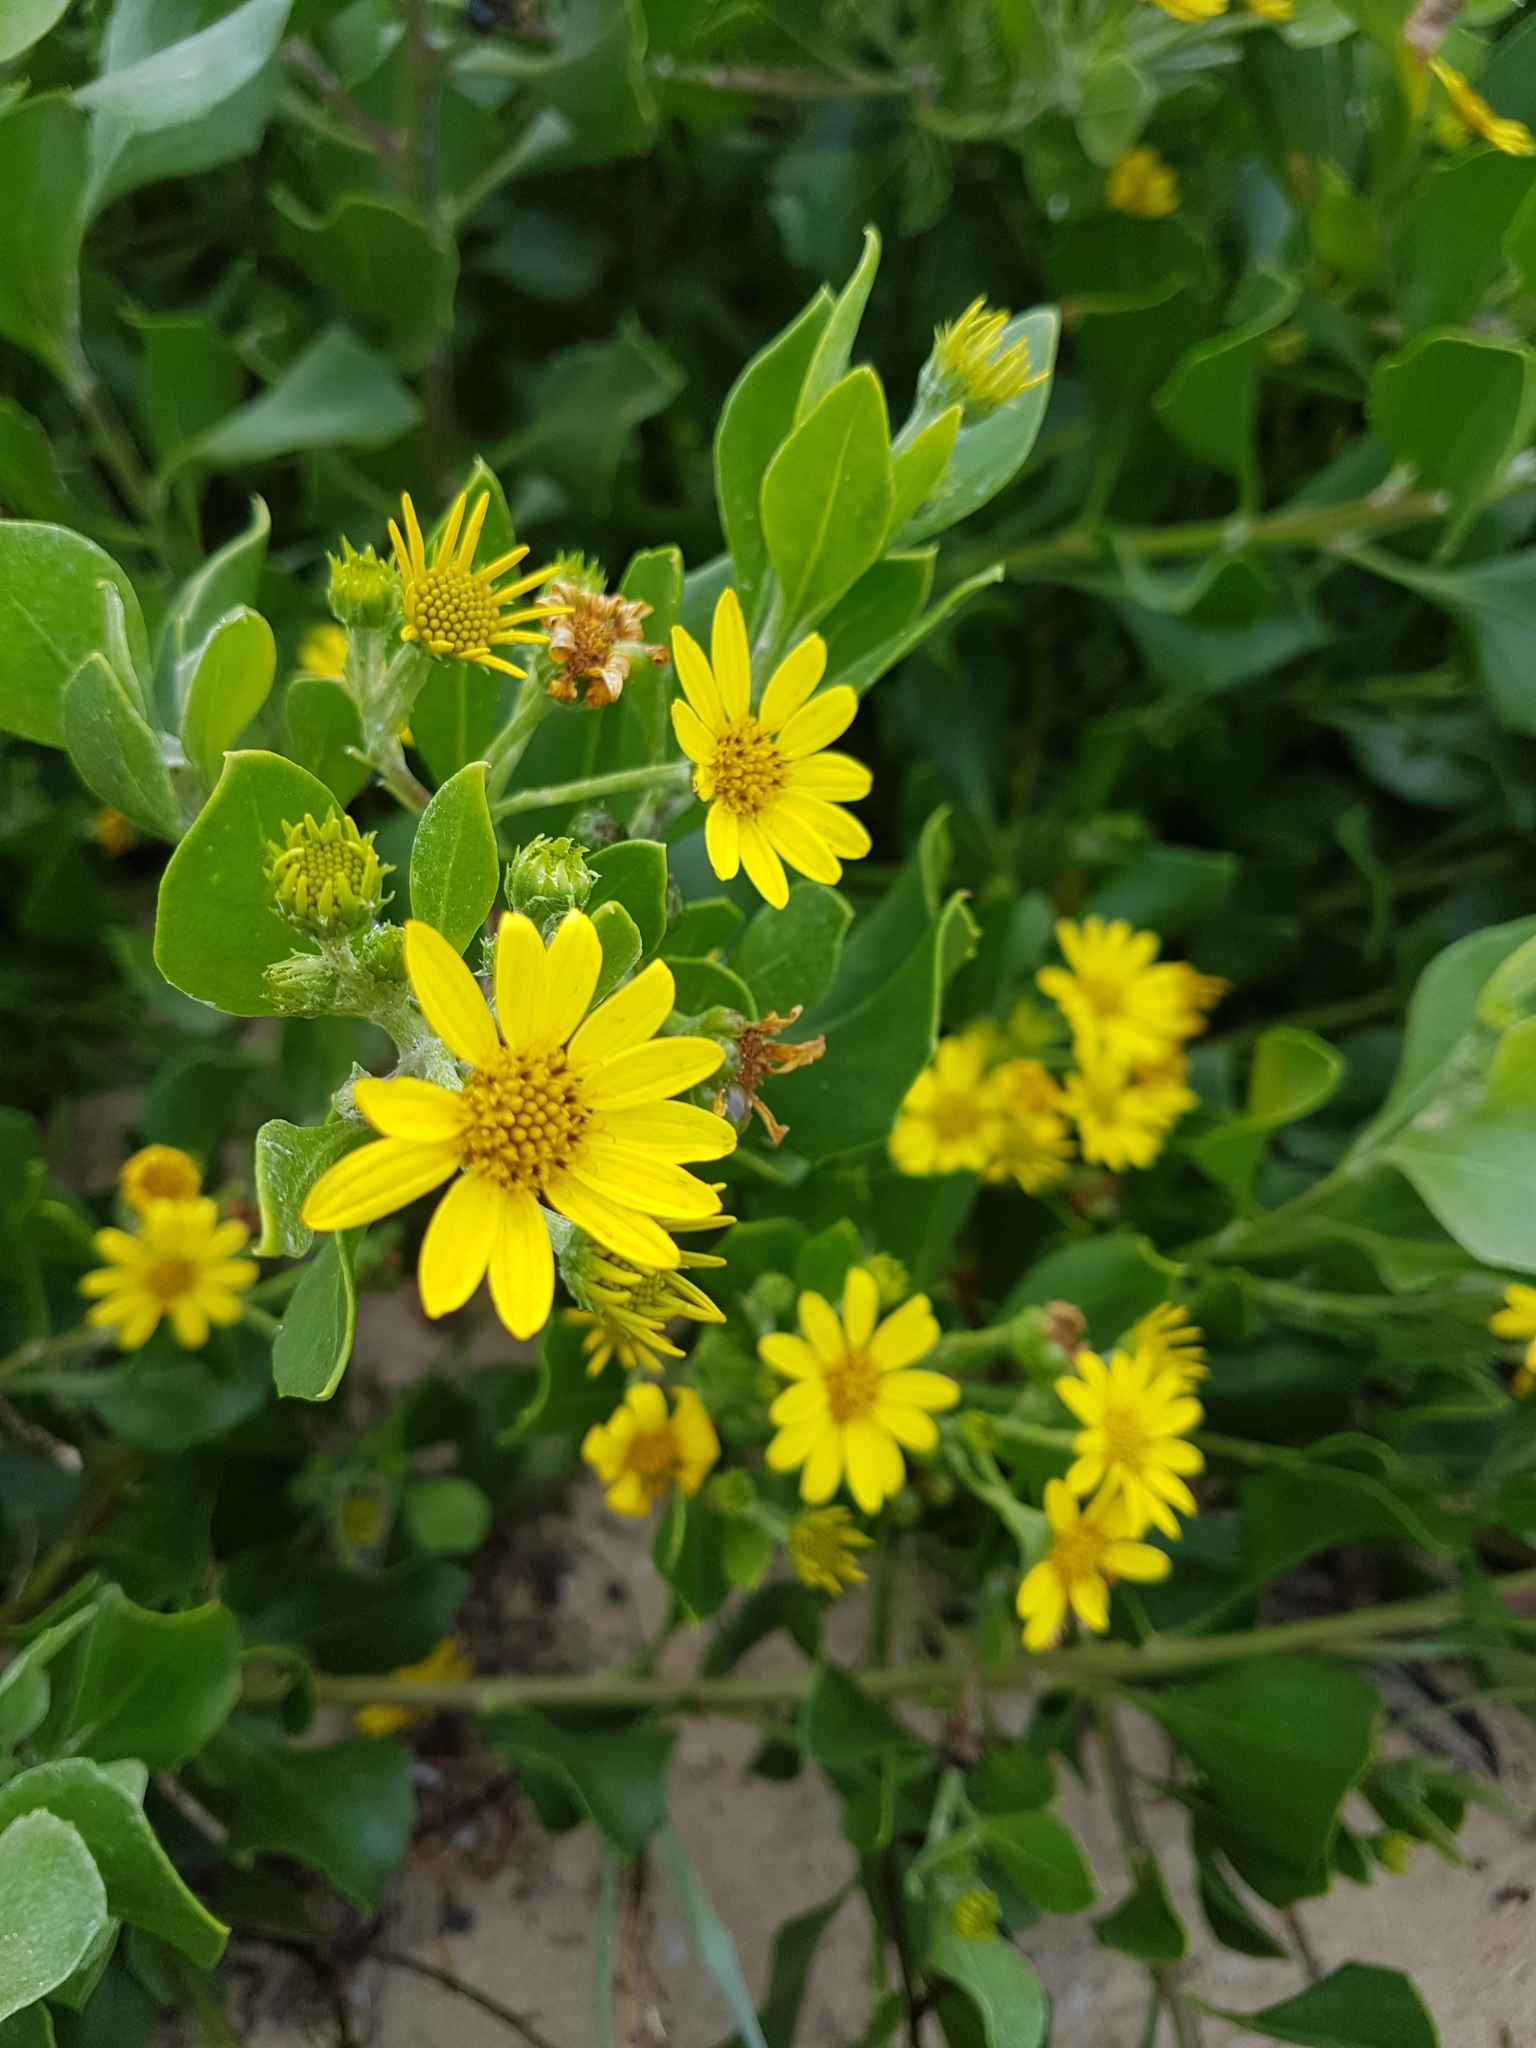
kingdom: Plantae
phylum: Tracheophyta
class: Magnoliopsida
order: Asterales
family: Asteraceae
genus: Osteospermum
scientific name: Osteospermum moniliferum
